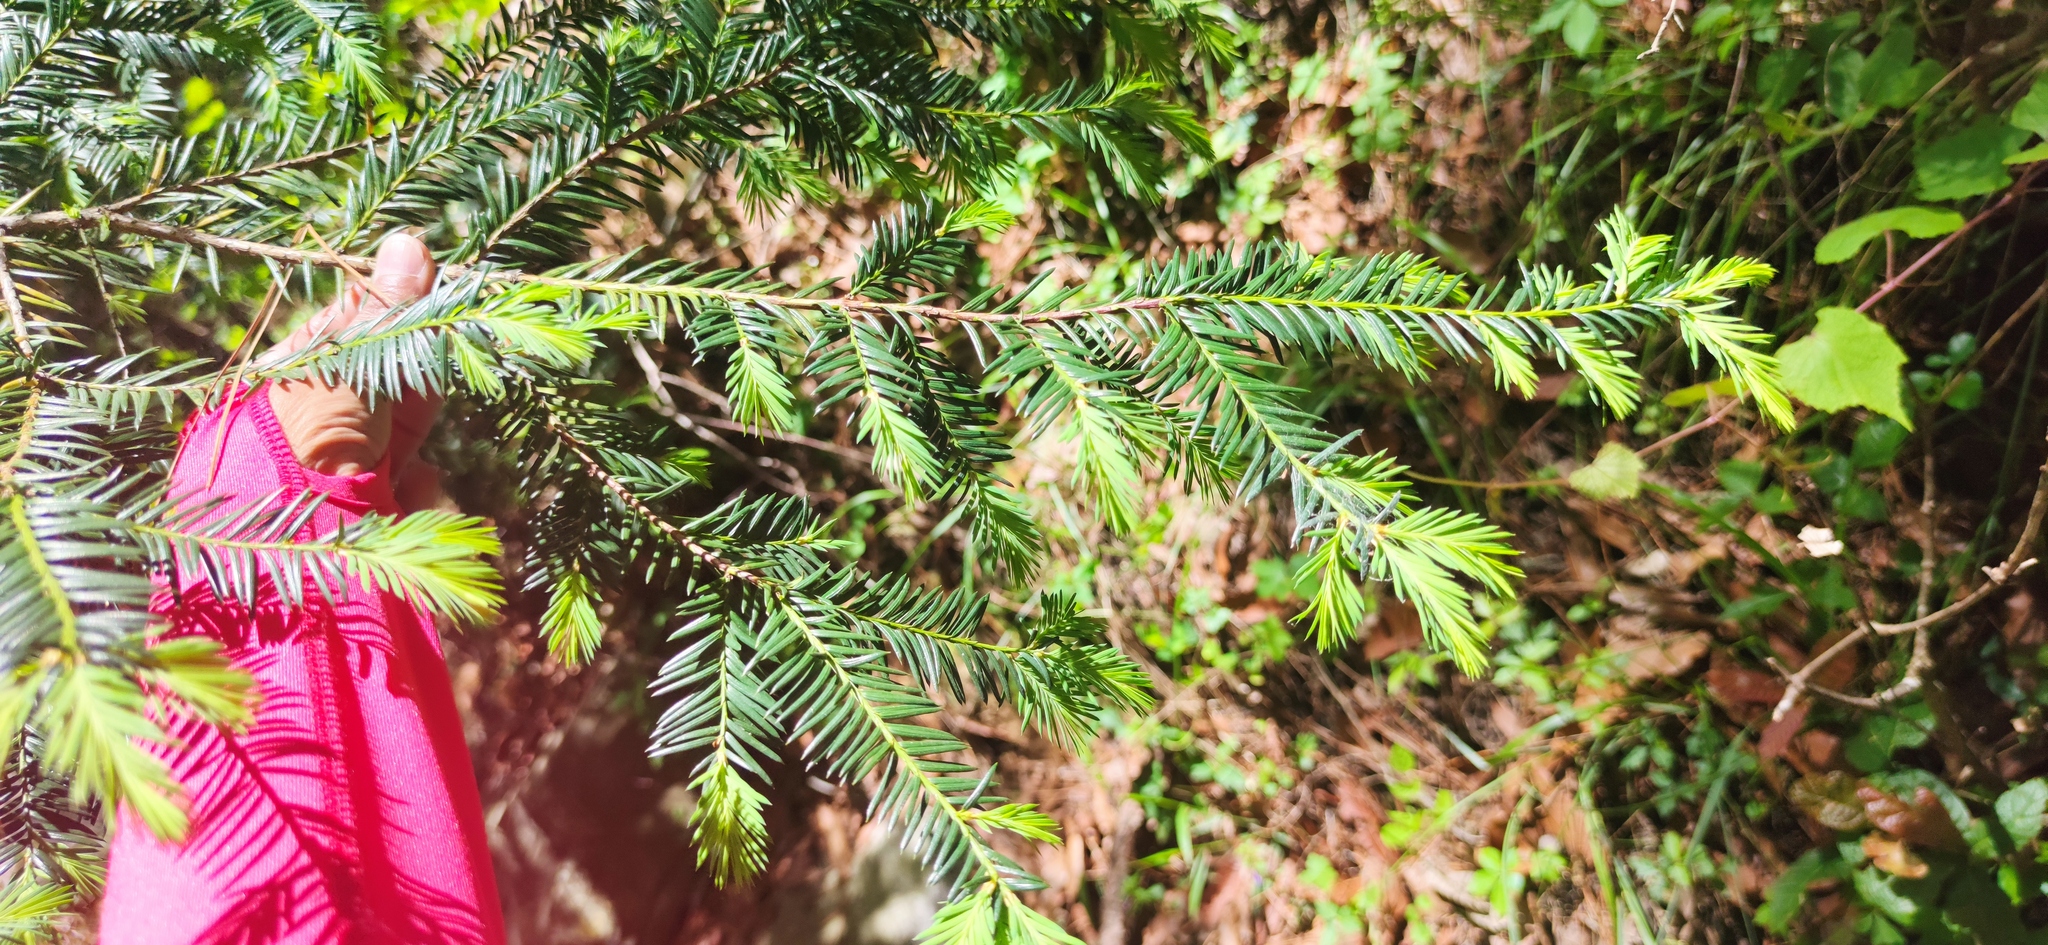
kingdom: Plantae
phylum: Tracheophyta
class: Pinopsida
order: Pinales
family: Taxaceae
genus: Taxus
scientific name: Taxus globosa
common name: Mexican yew
